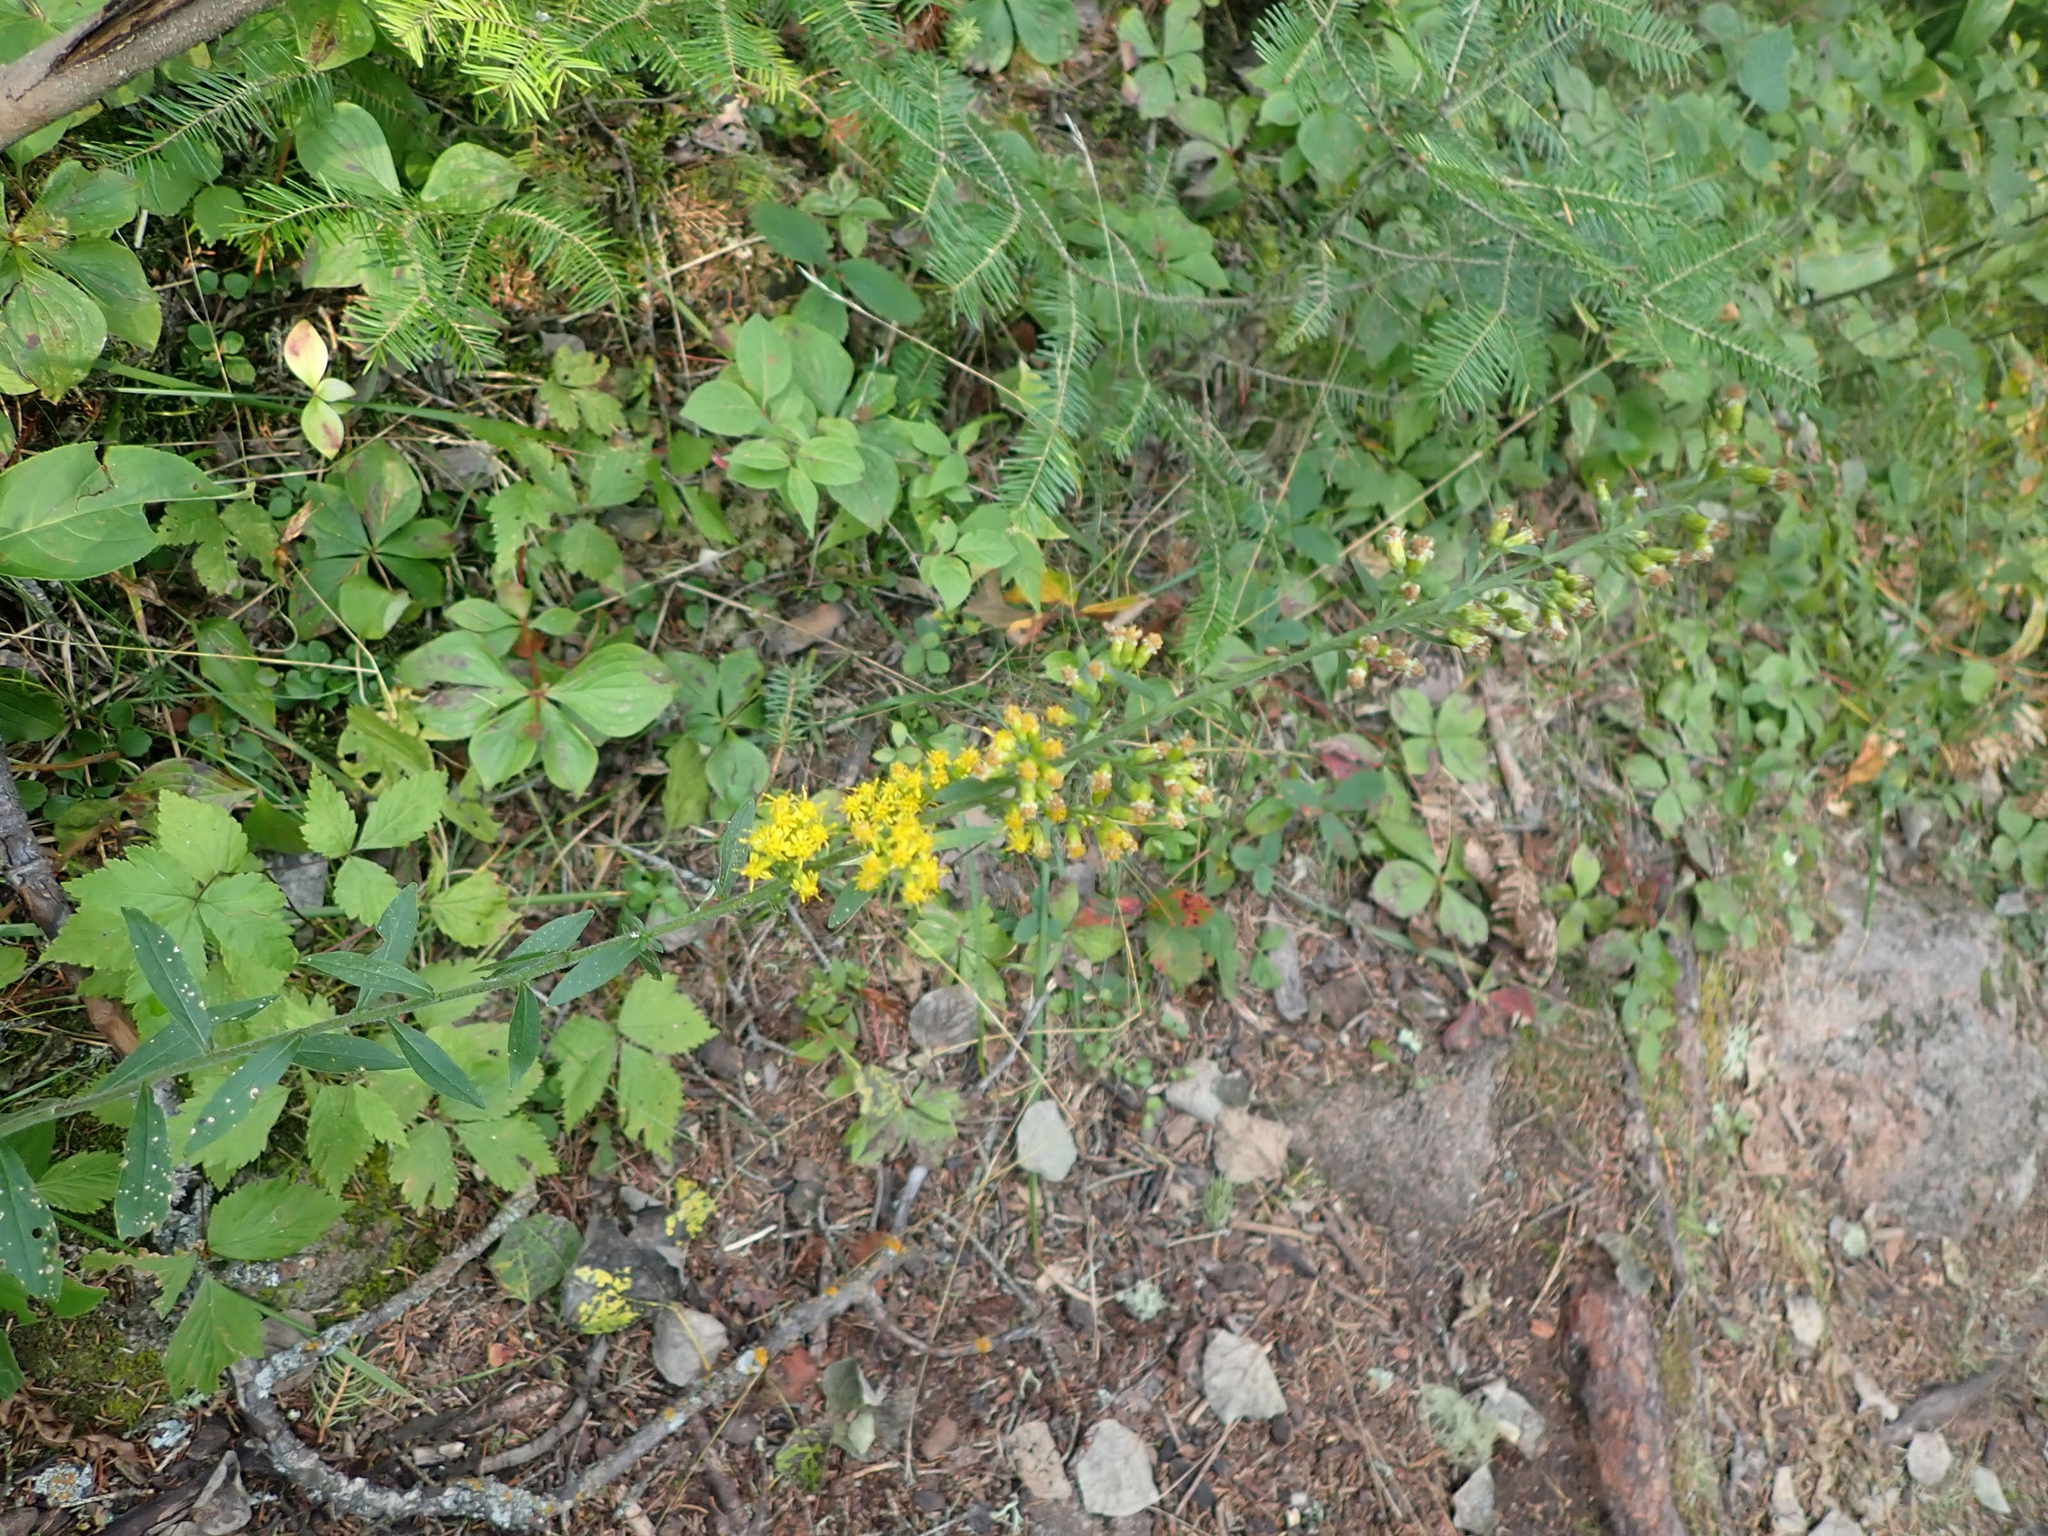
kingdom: Plantae
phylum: Tracheophyta
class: Magnoliopsida
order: Asterales
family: Asteraceae
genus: Solidago
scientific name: Solidago hispida
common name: Hairy goldenrod
